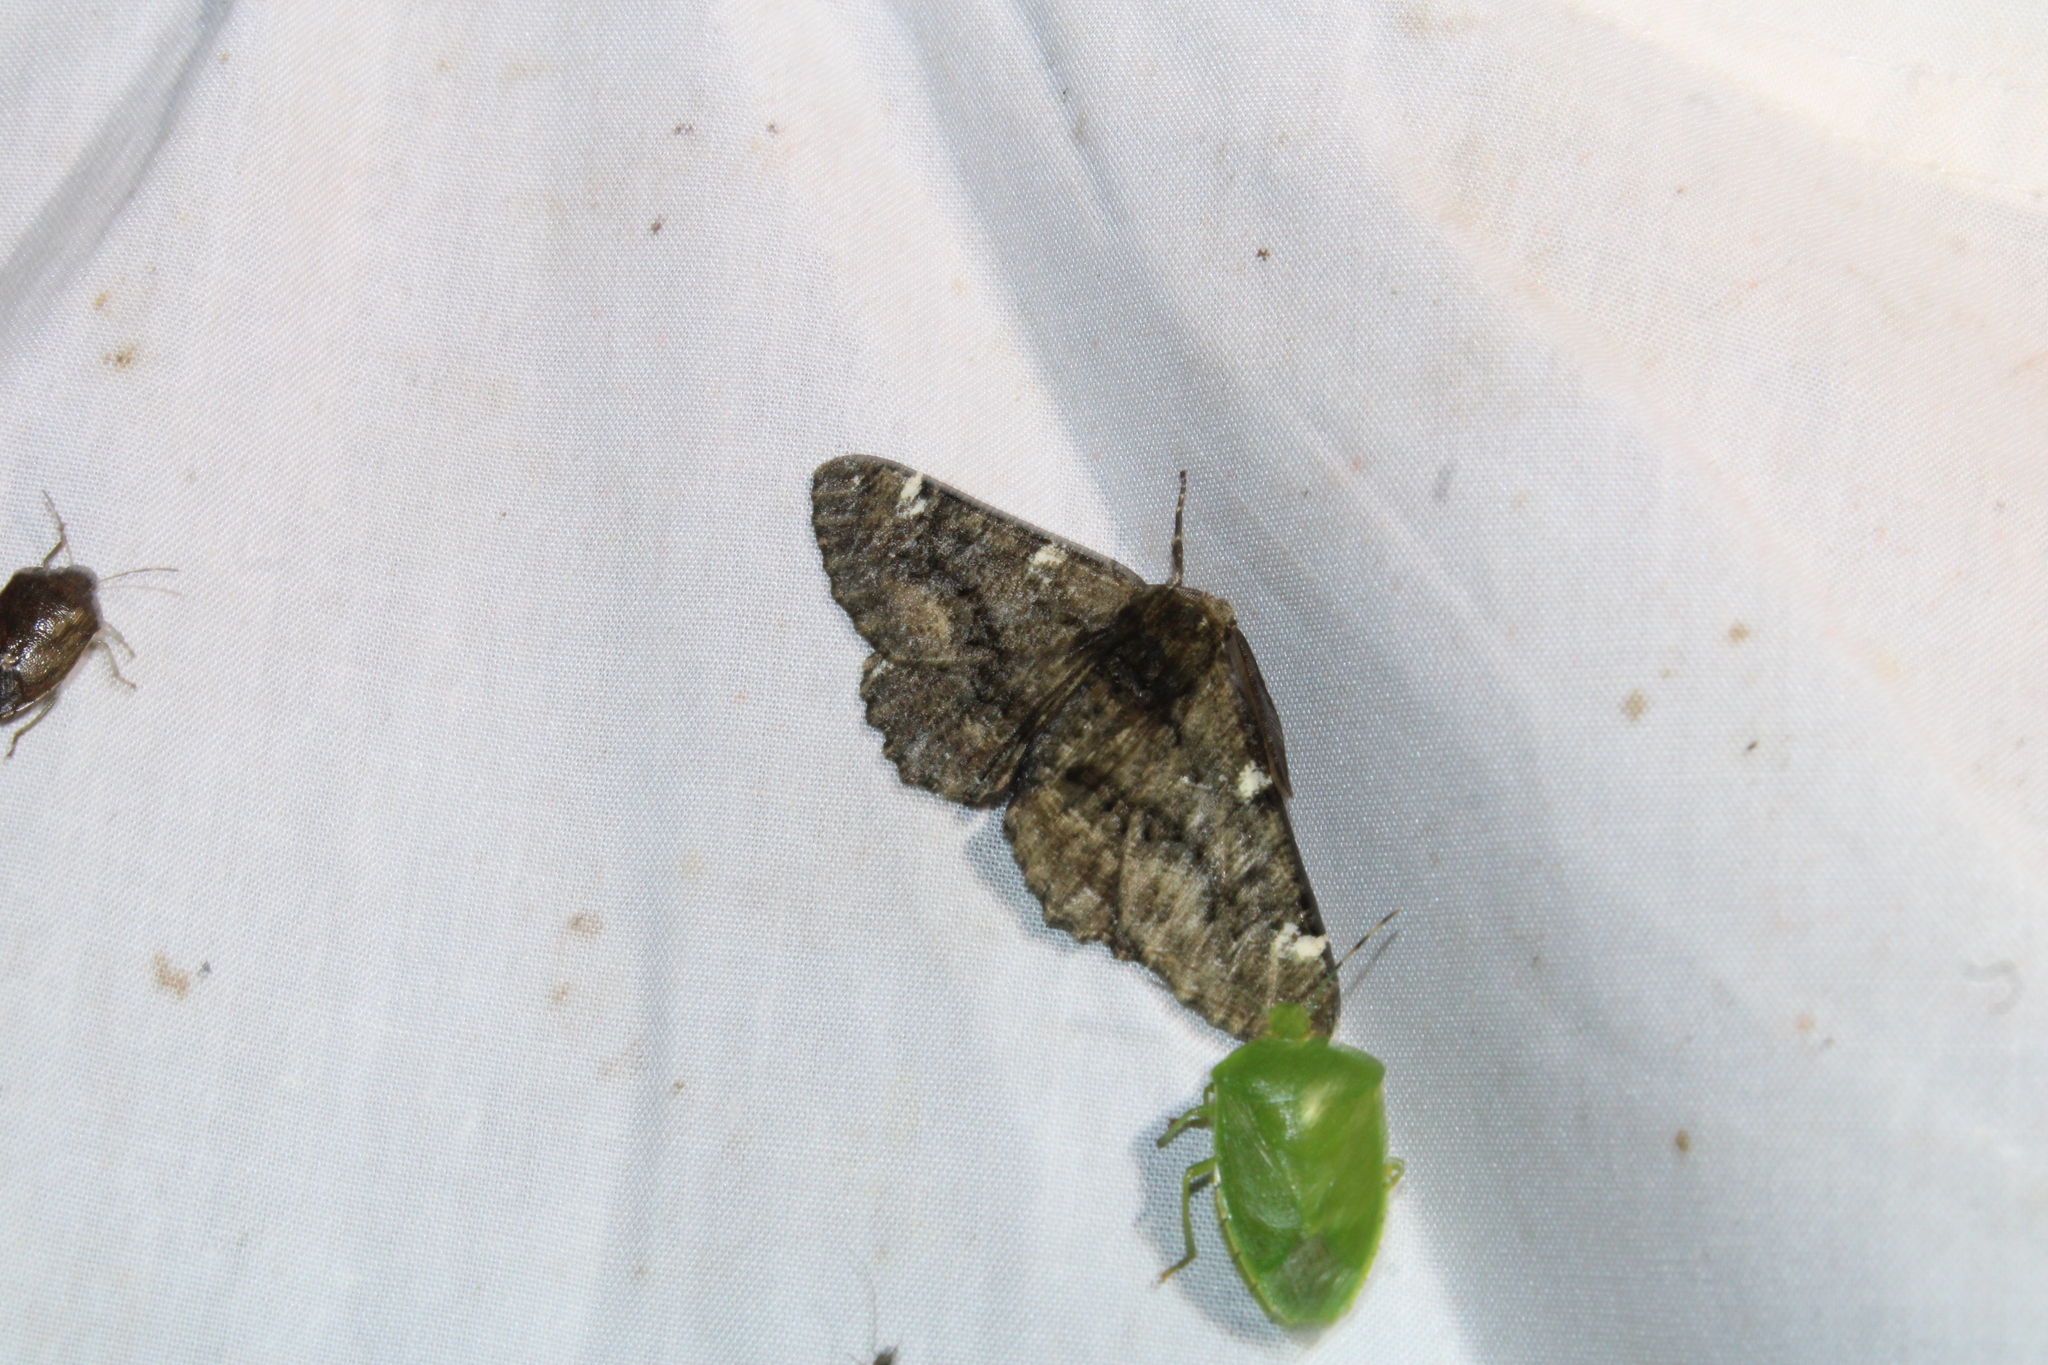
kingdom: Animalia
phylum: Arthropoda
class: Insecta
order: Lepidoptera
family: Geometridae
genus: Phaeoura
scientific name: Phaeoura quernaria
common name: Oak beauty
